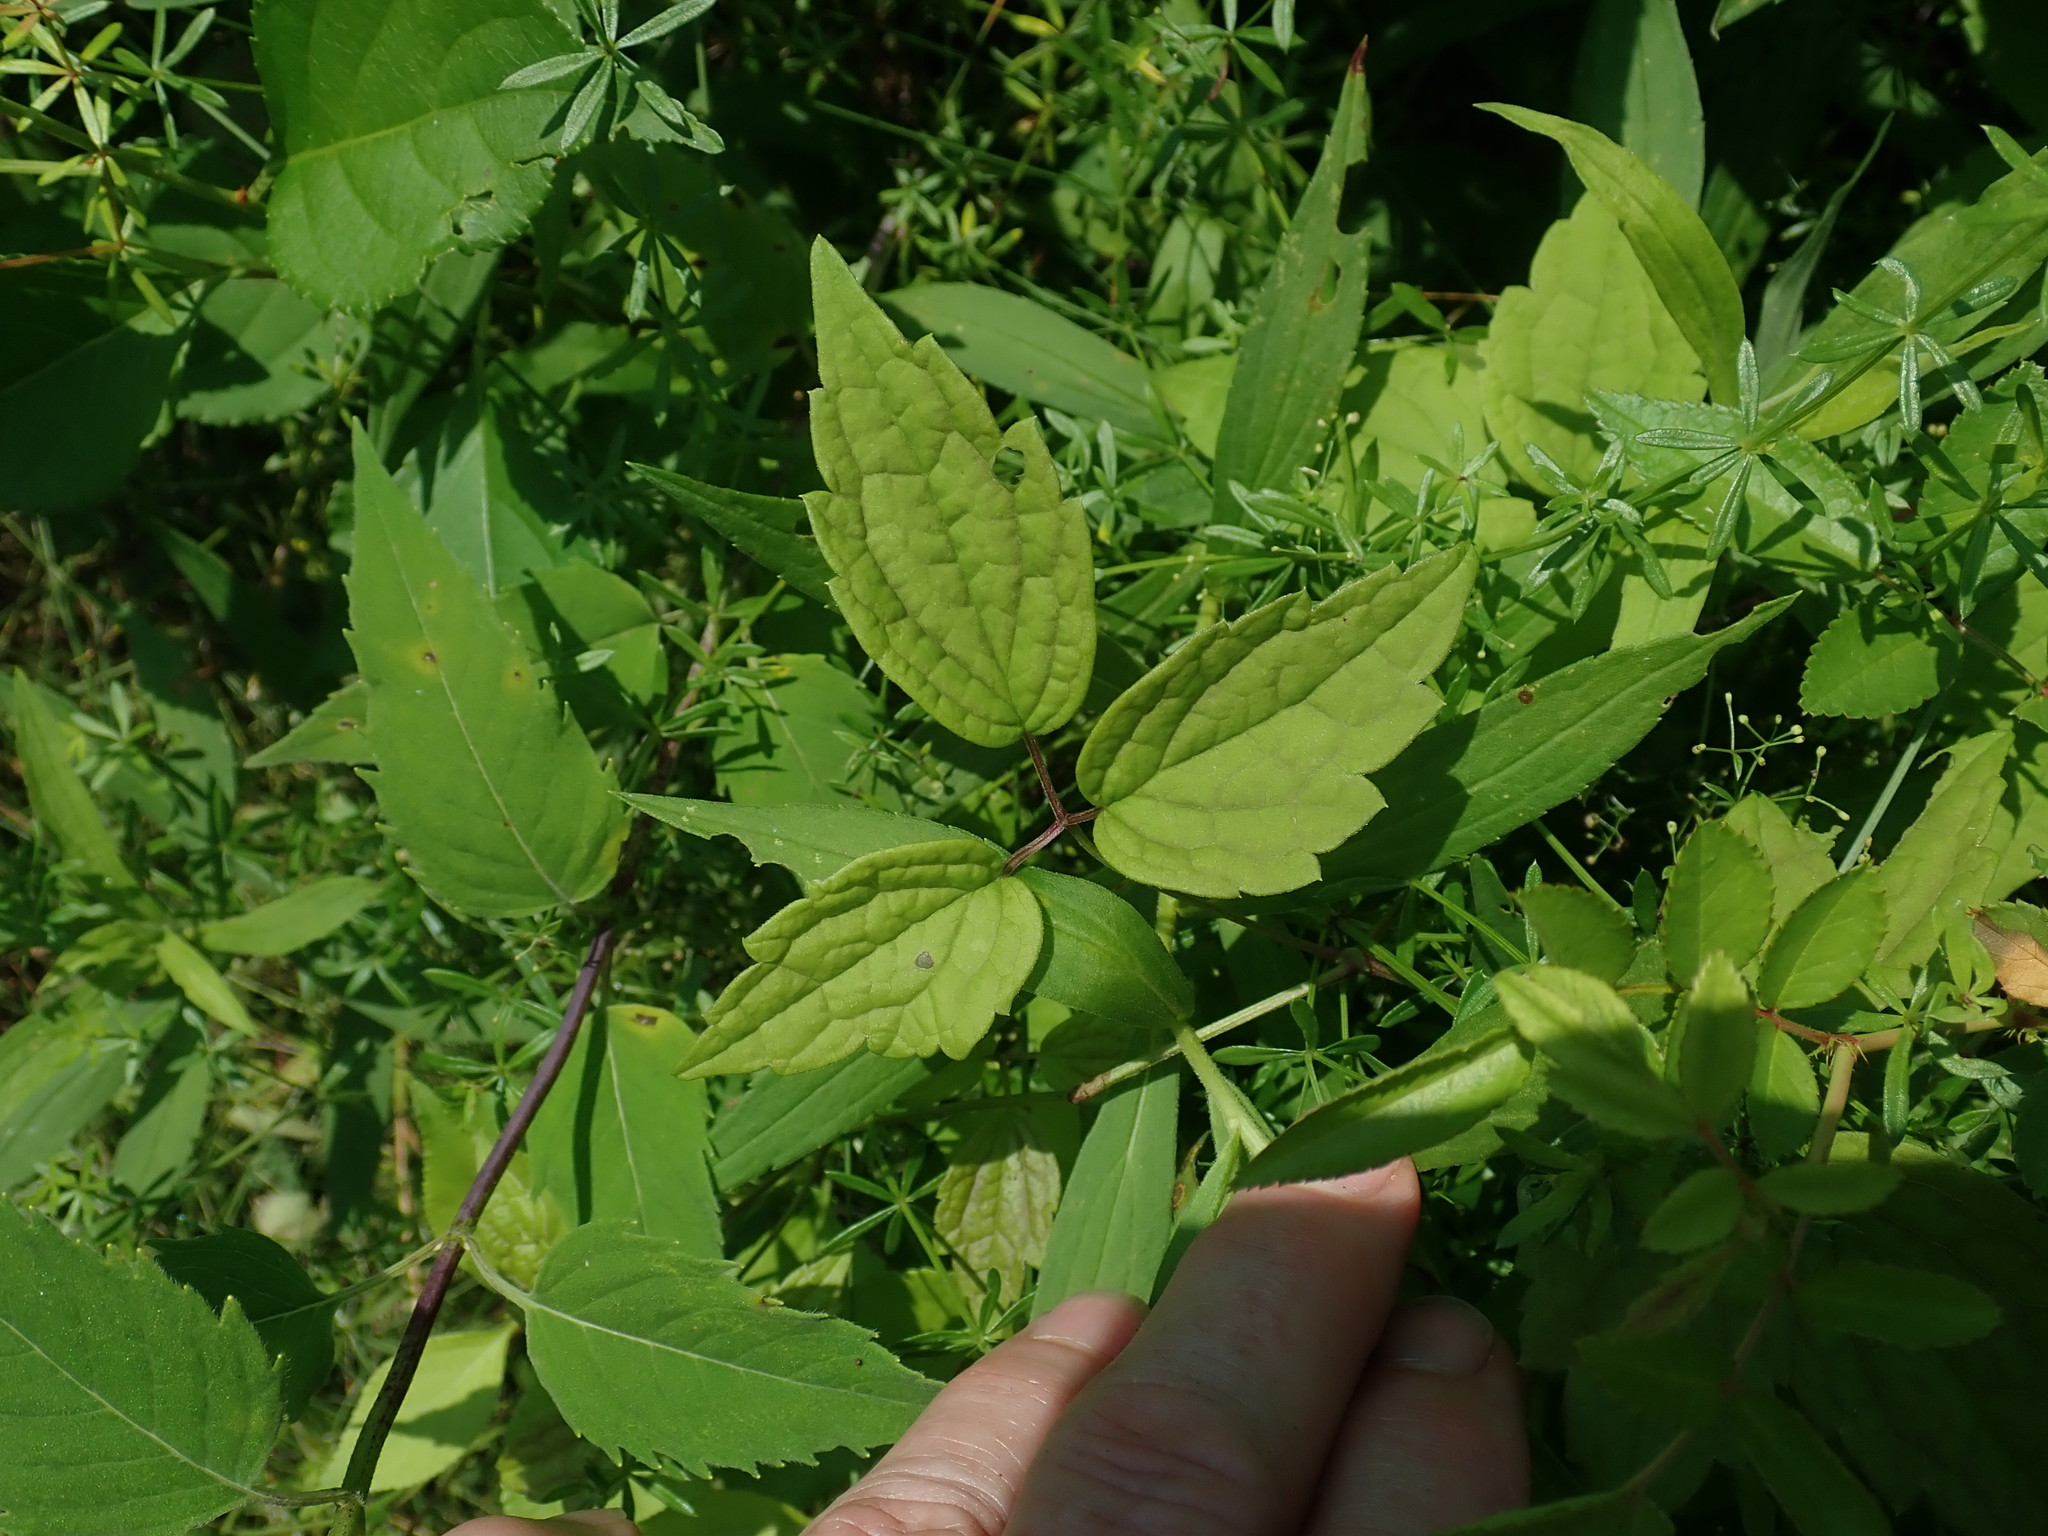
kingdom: Plantae
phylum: Tracheophyta
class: Magnoliopsida
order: Ranunculales
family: Ranunculaceae
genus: Clematis
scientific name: Clematis virginiana
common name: Virgin's-bower
